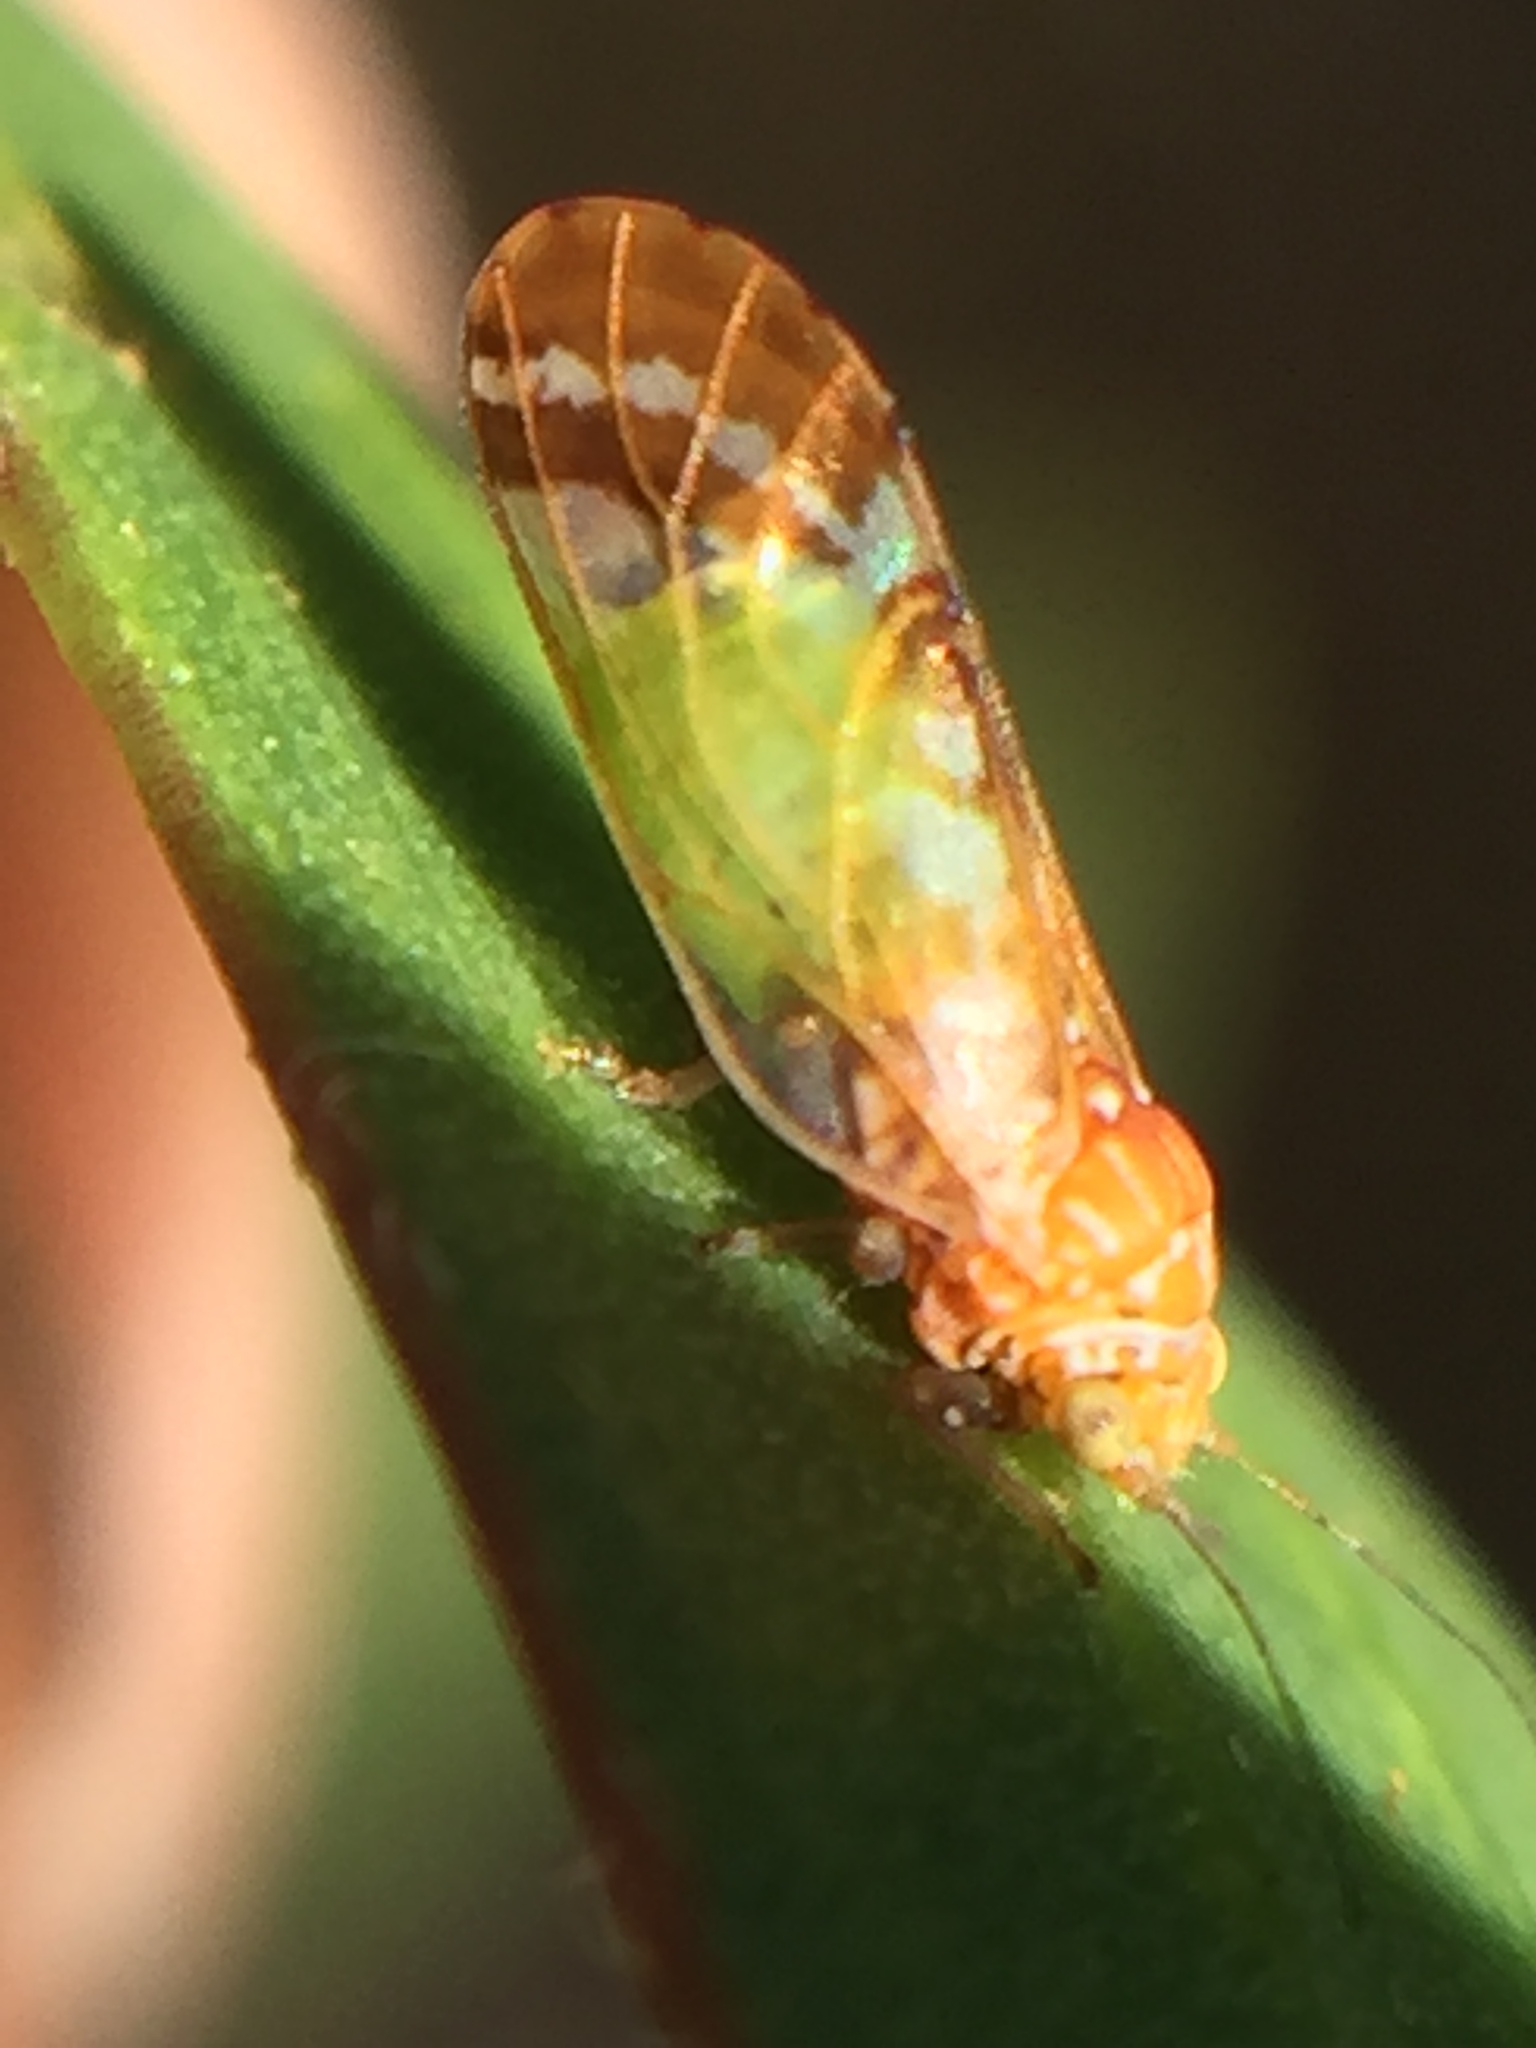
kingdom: Animalia
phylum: Arthropoda
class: Insecta
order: Hemiptera
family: Psyllidae
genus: Acizzia
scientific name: Acizzia conspicua
